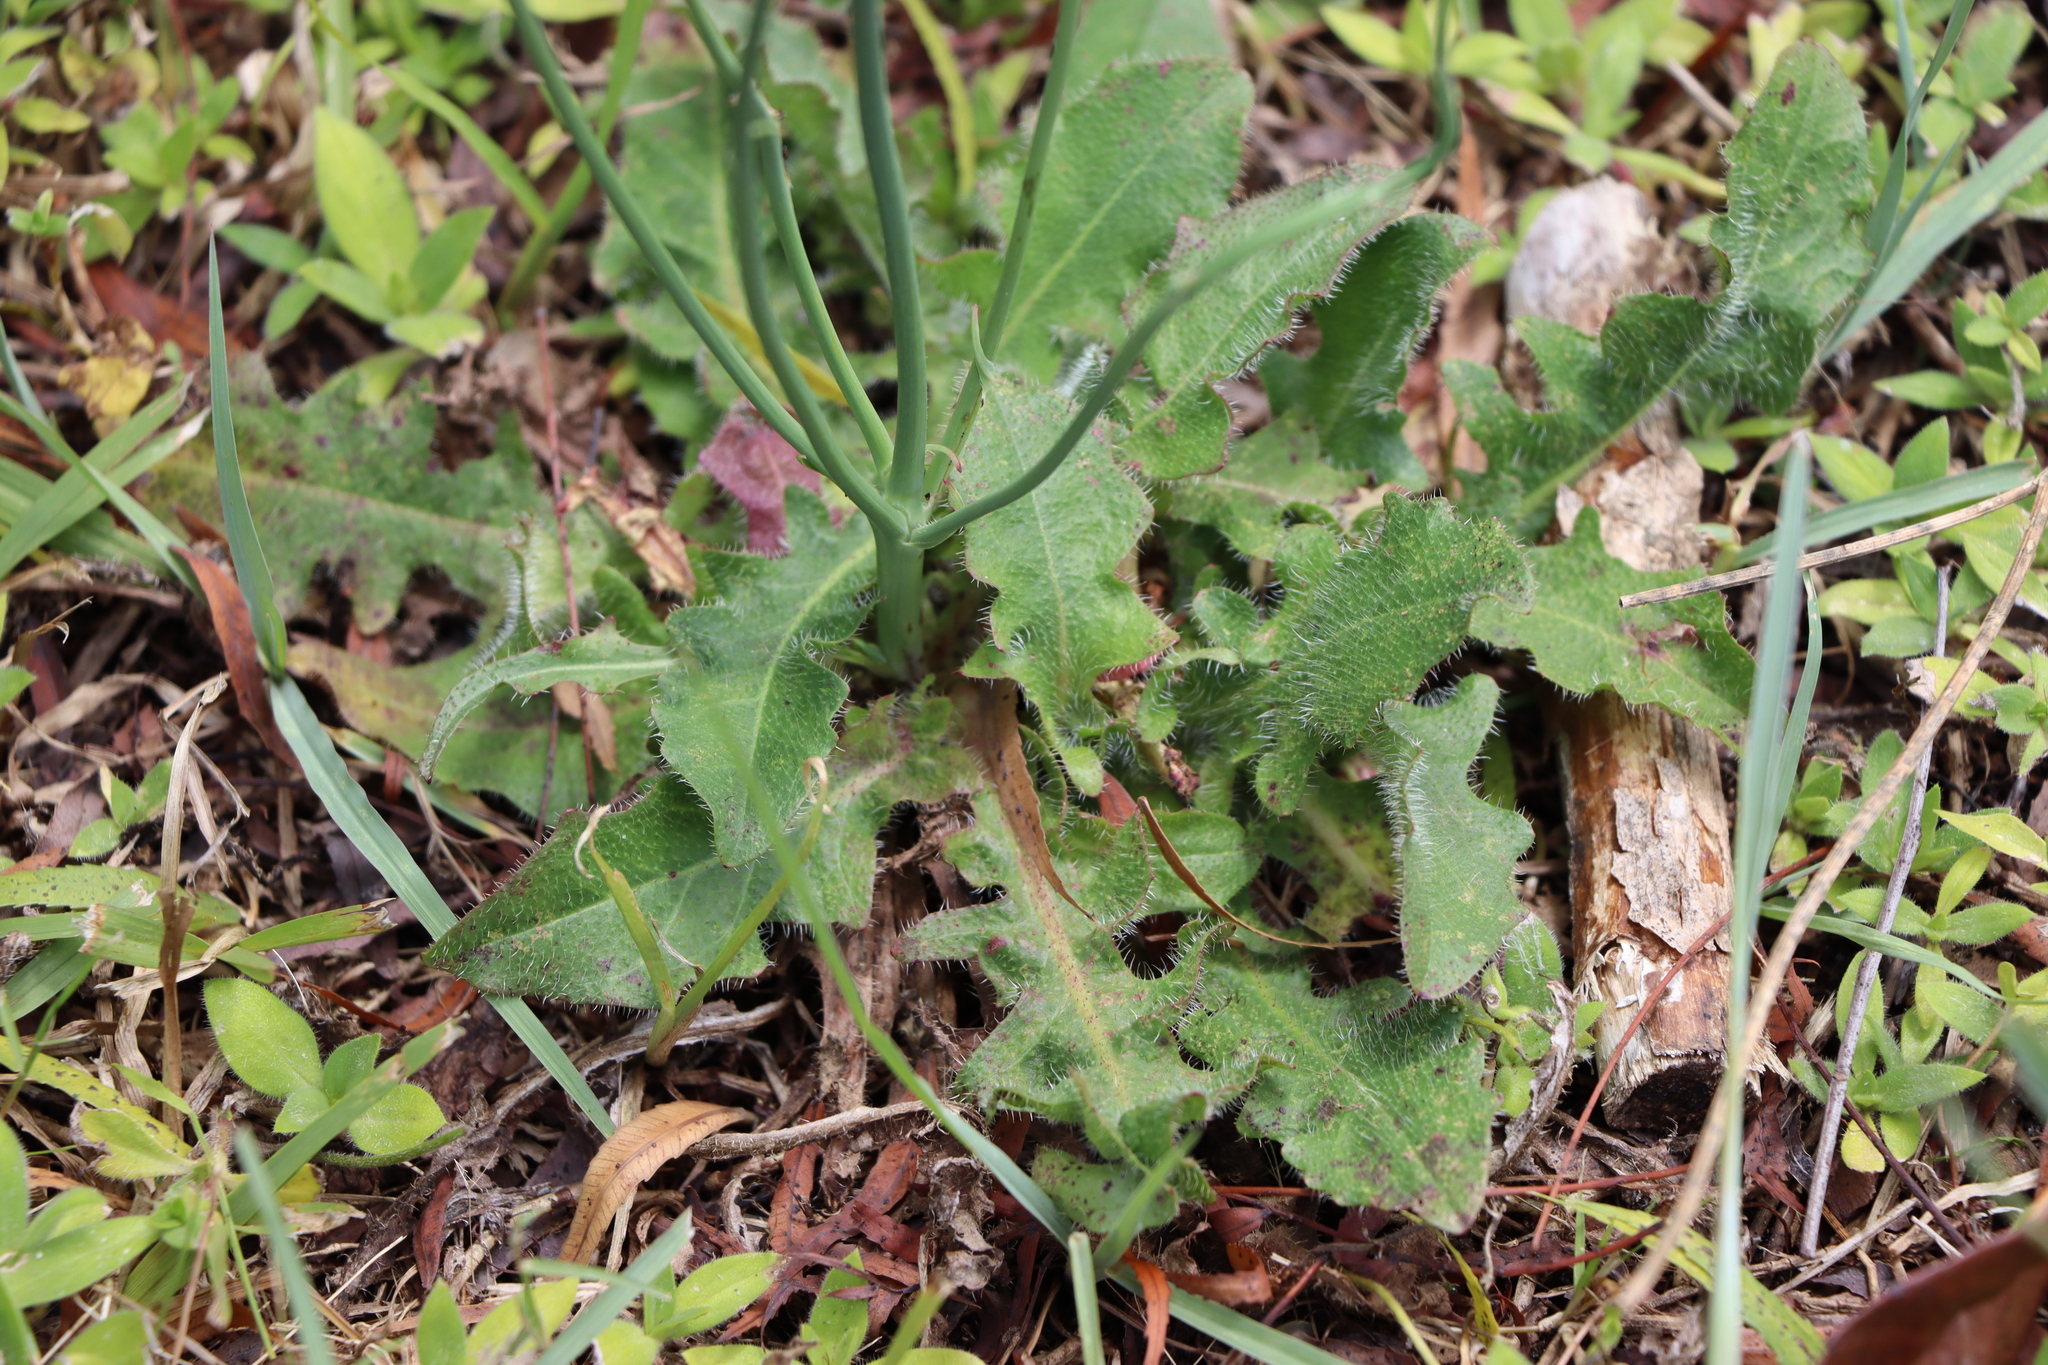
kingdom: Plantae
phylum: Tracheophyta
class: Magnoliopsida
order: Asterales
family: Asteraceae
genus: Hypochaeris
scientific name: Hypochaeris radicata
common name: Flatweed
